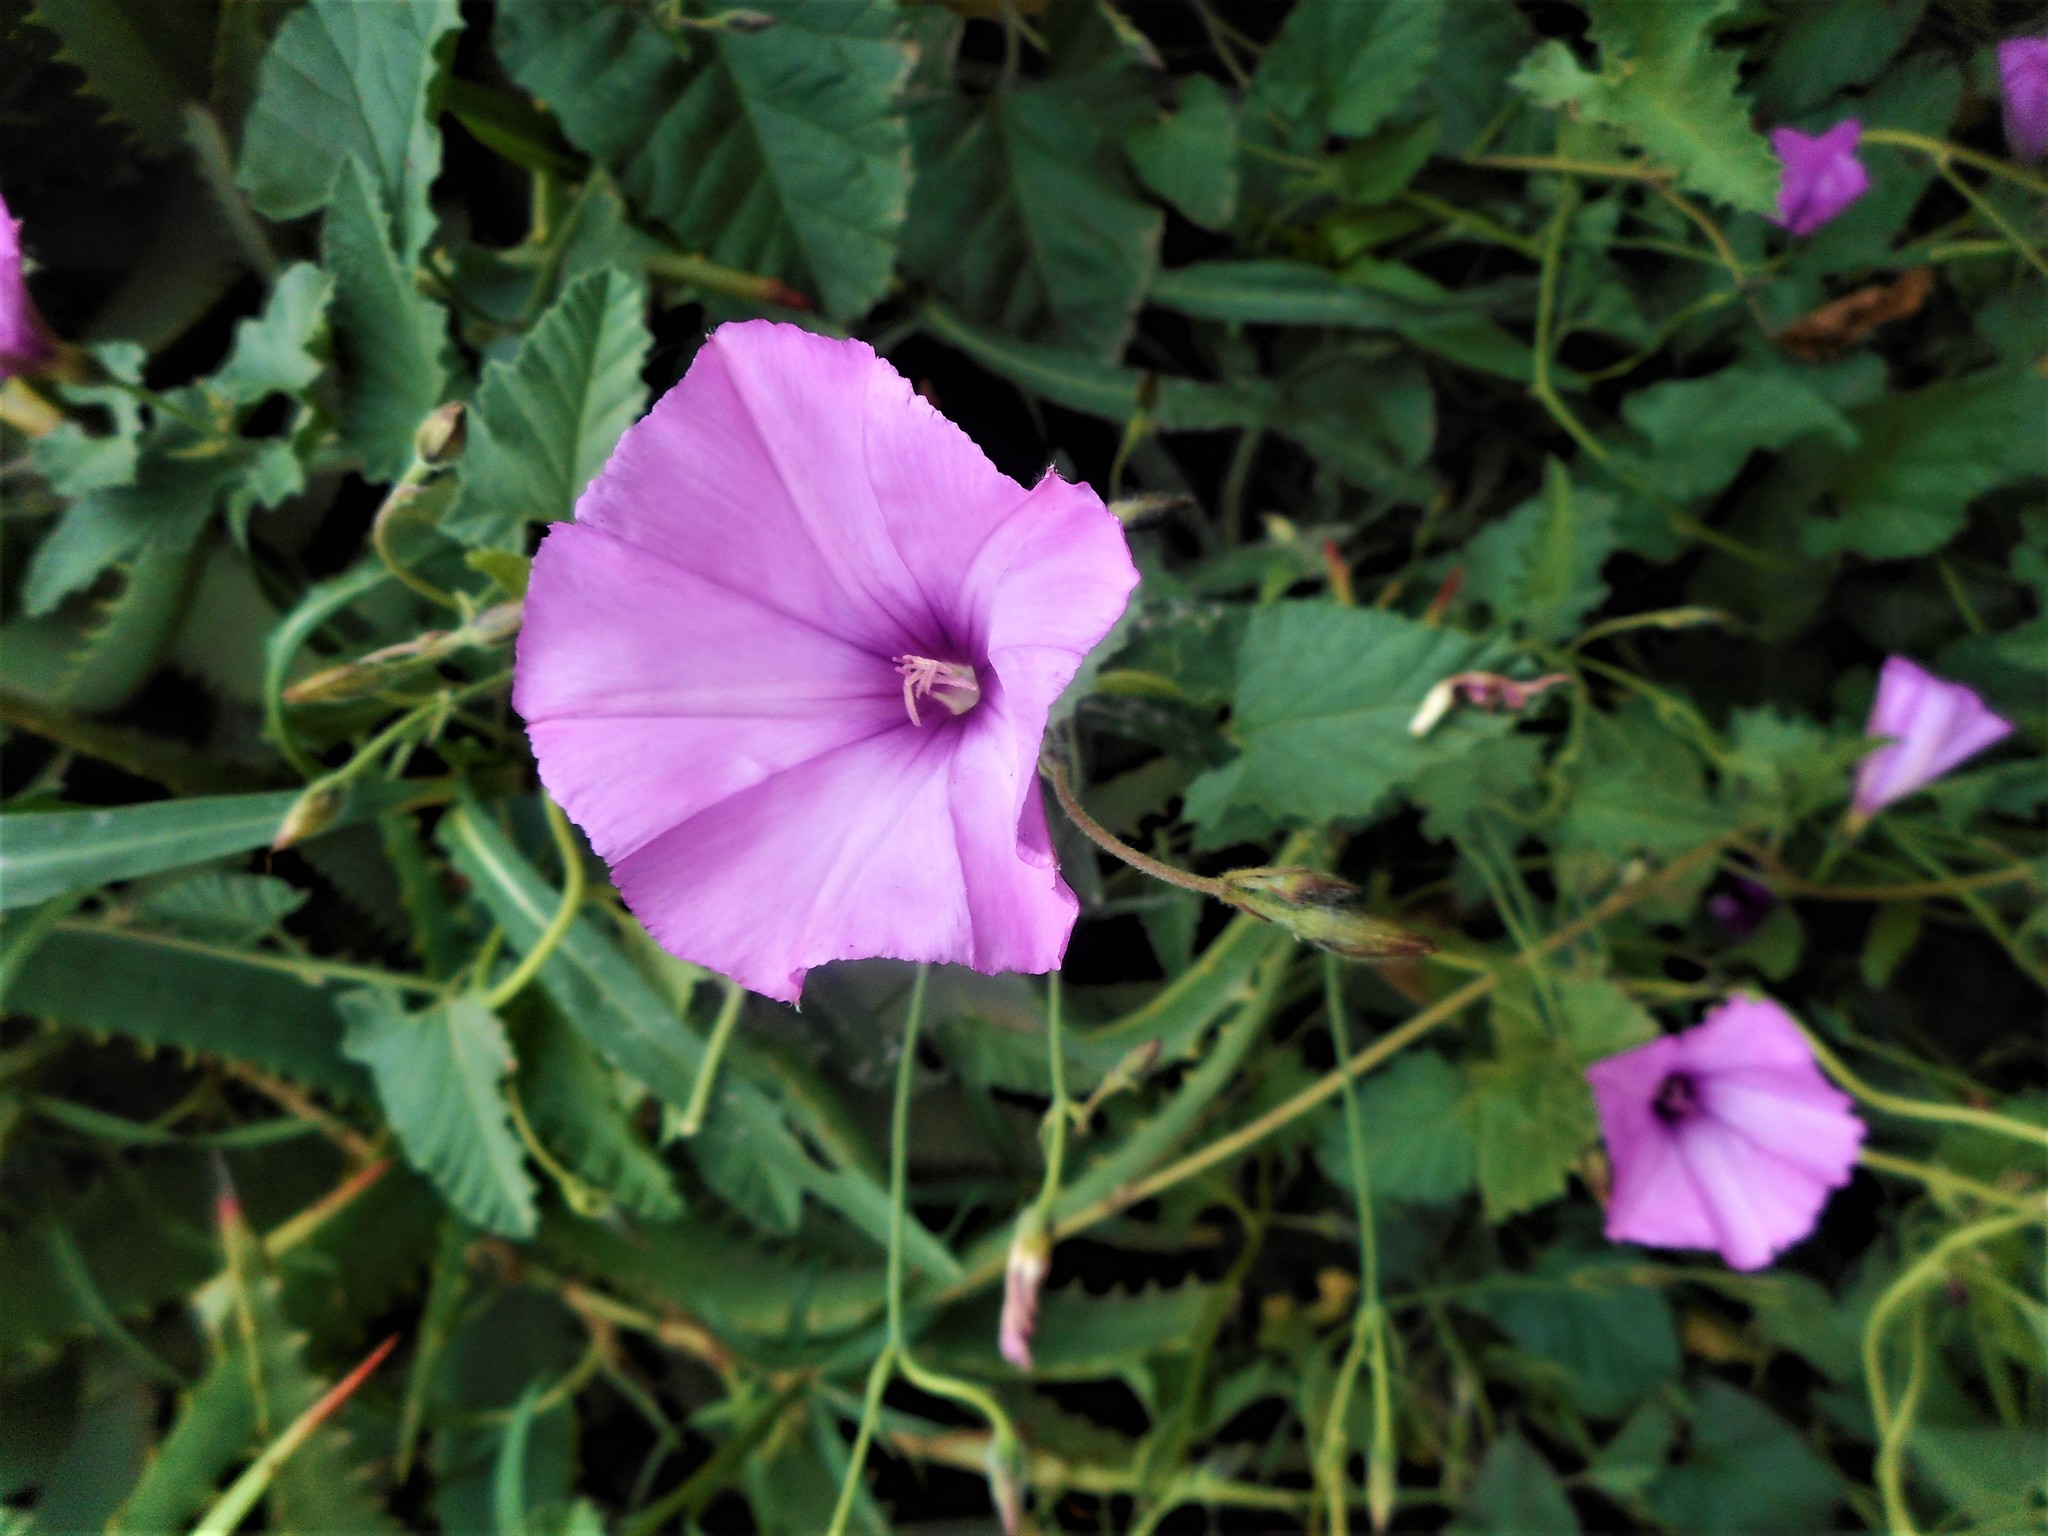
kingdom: Plantae
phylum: Tracheophyta
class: Magnoliopsida
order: Solanales
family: Convolvulaceae
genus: Convolvulus
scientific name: Convolvulus althaeoides
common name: Mallow bindweed
